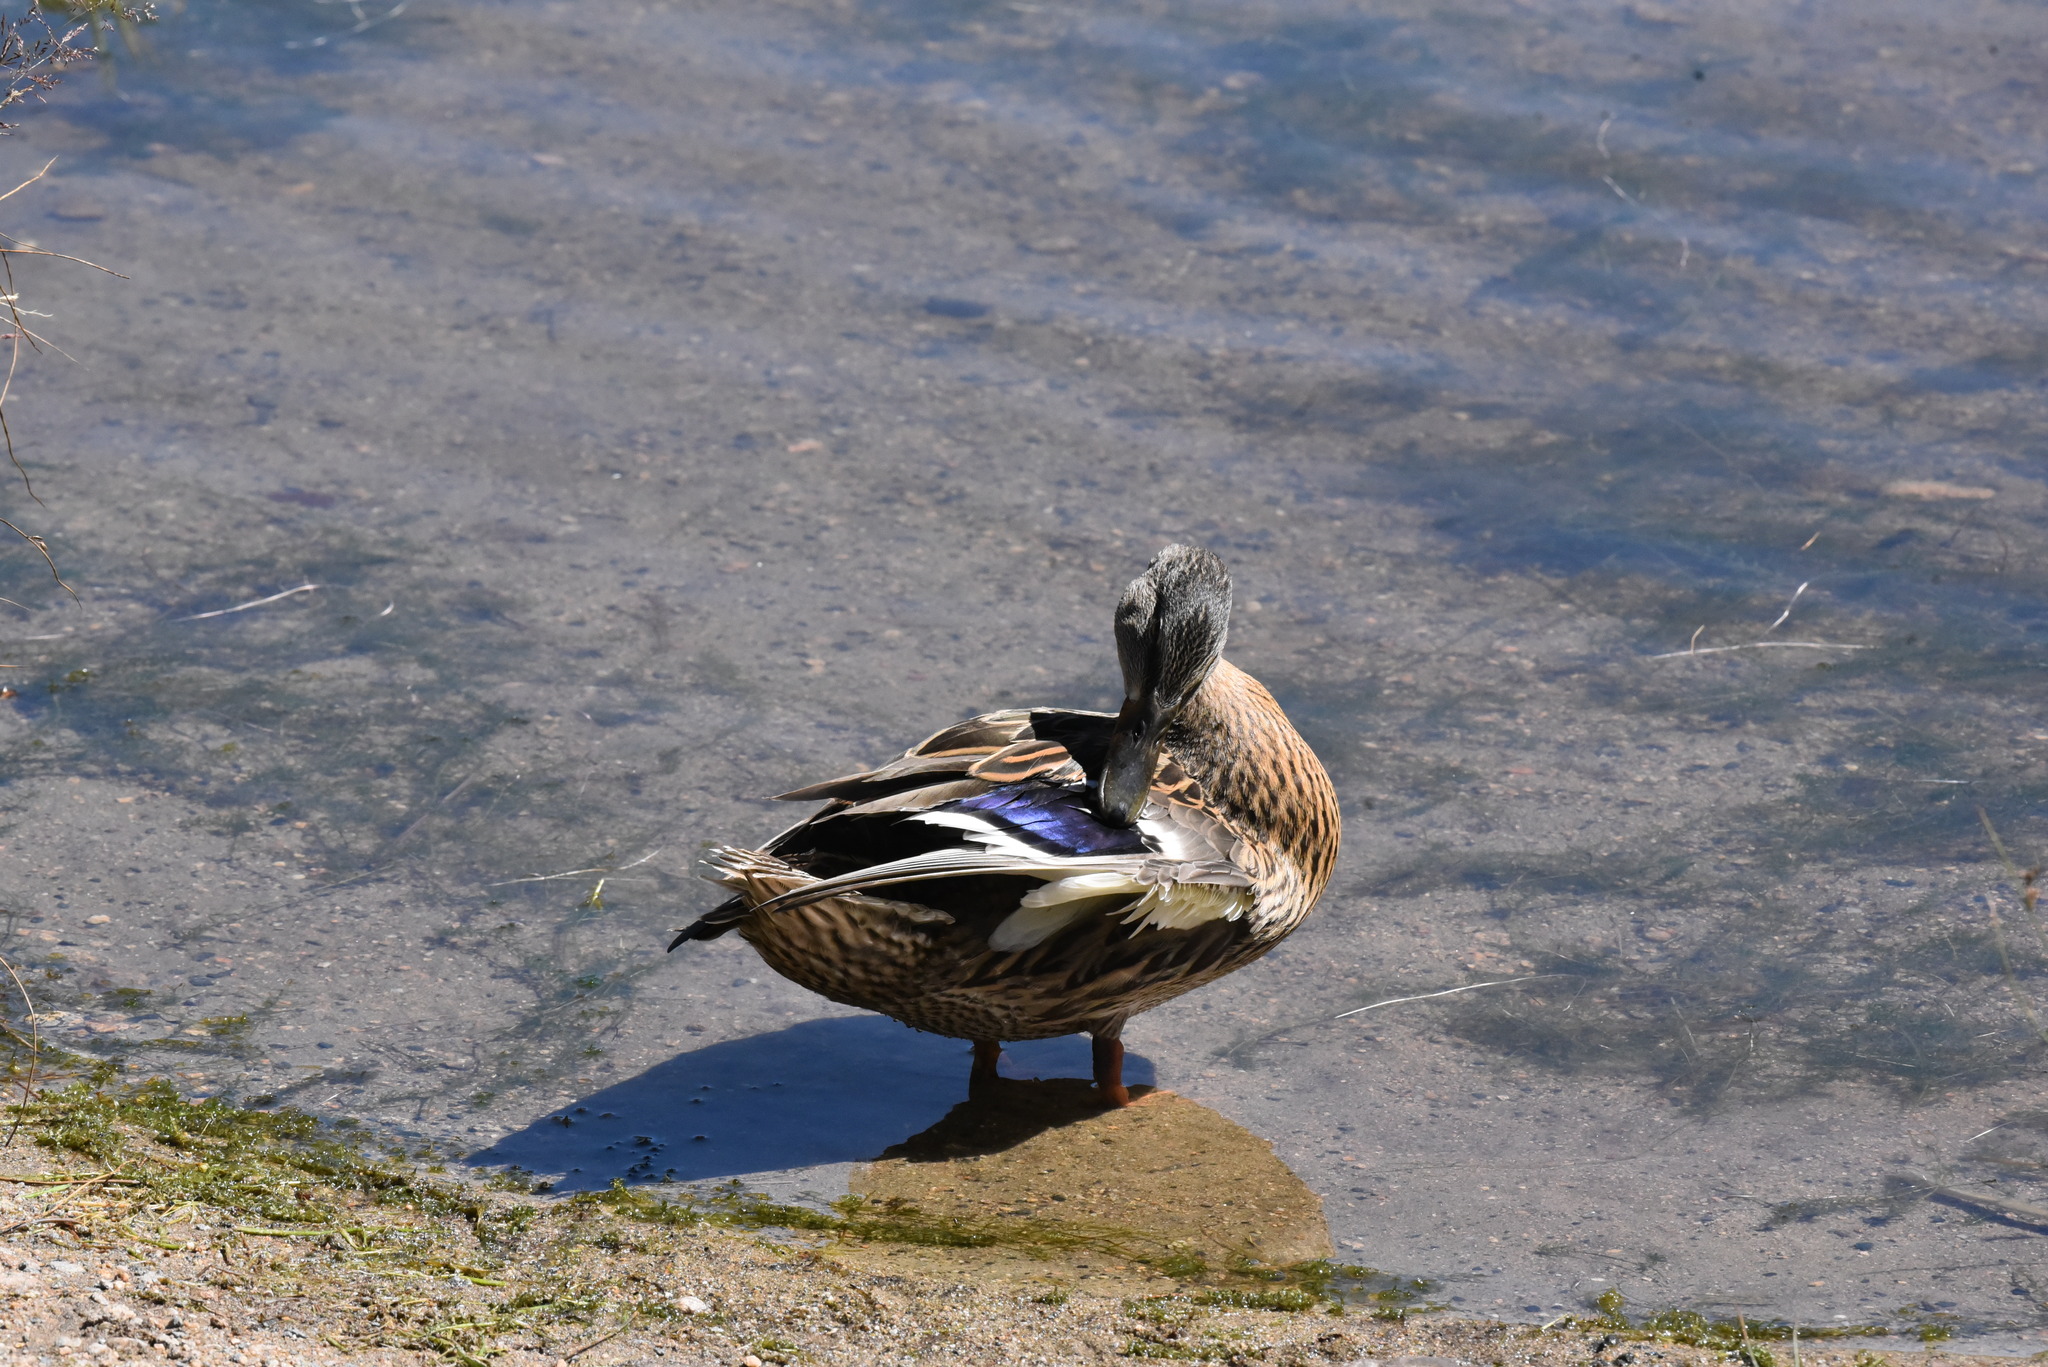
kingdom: Animalia
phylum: Chordata
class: Aves
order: Anseriformes
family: Anatidae
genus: Anas
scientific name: Anas platyrhynchos
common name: Mallard
